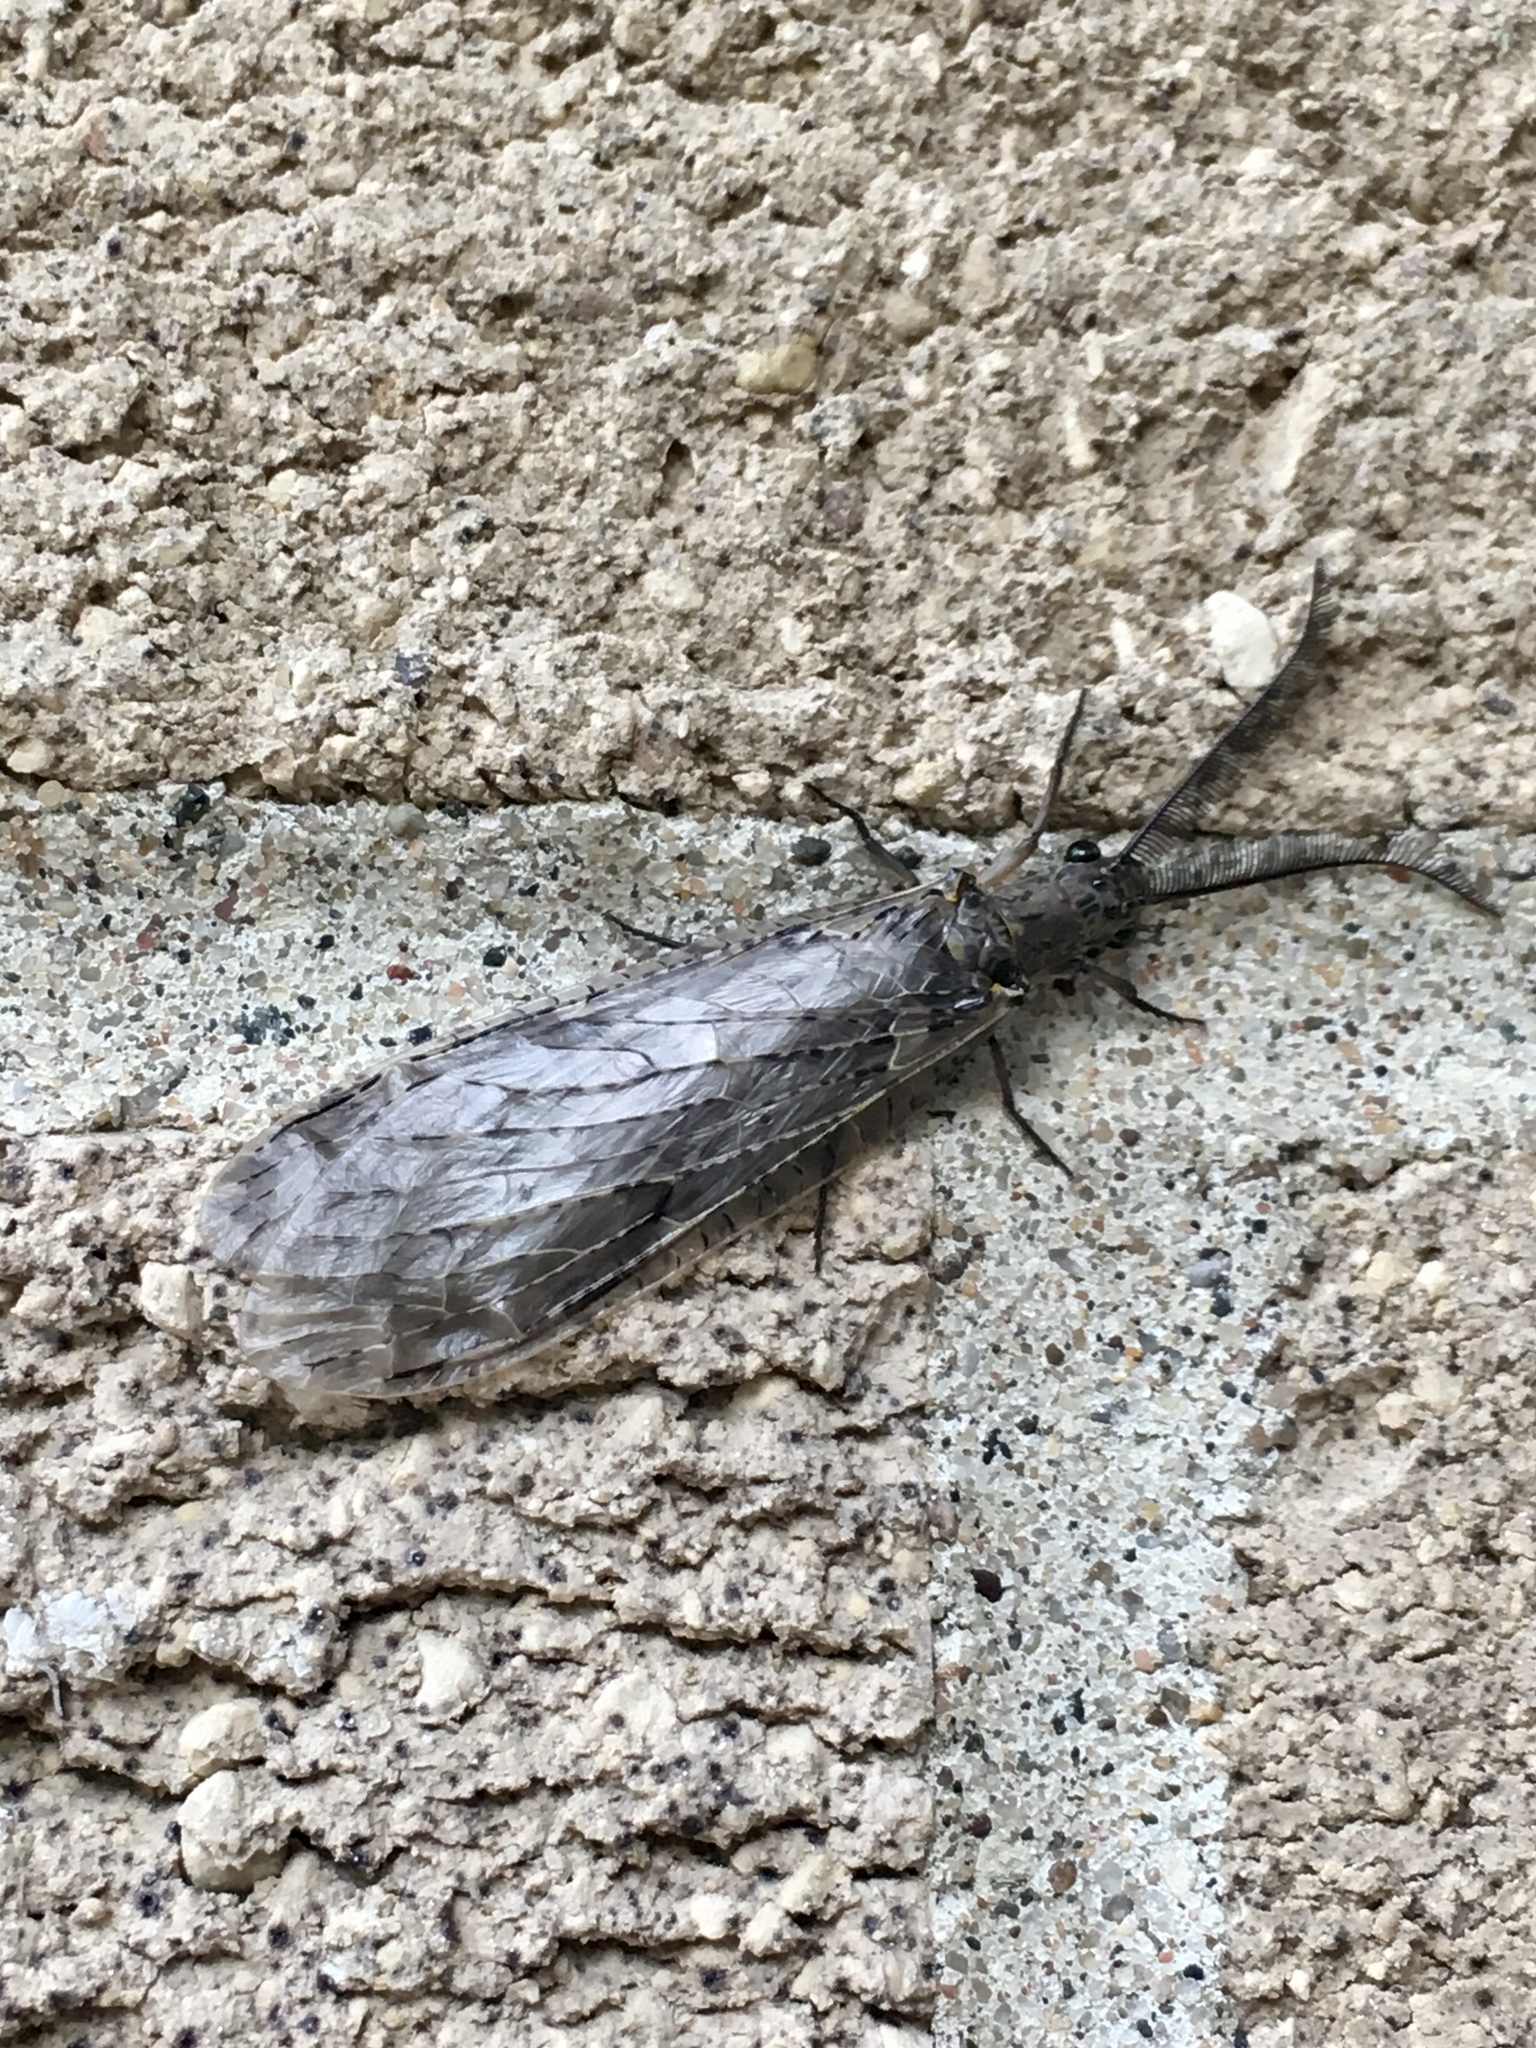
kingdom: Animalia
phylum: Arthropoda
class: Insecta
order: Megaloptera
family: Corydalidae
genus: Chauliodes
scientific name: Chauliodes rastricornis
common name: Spring fishfly
